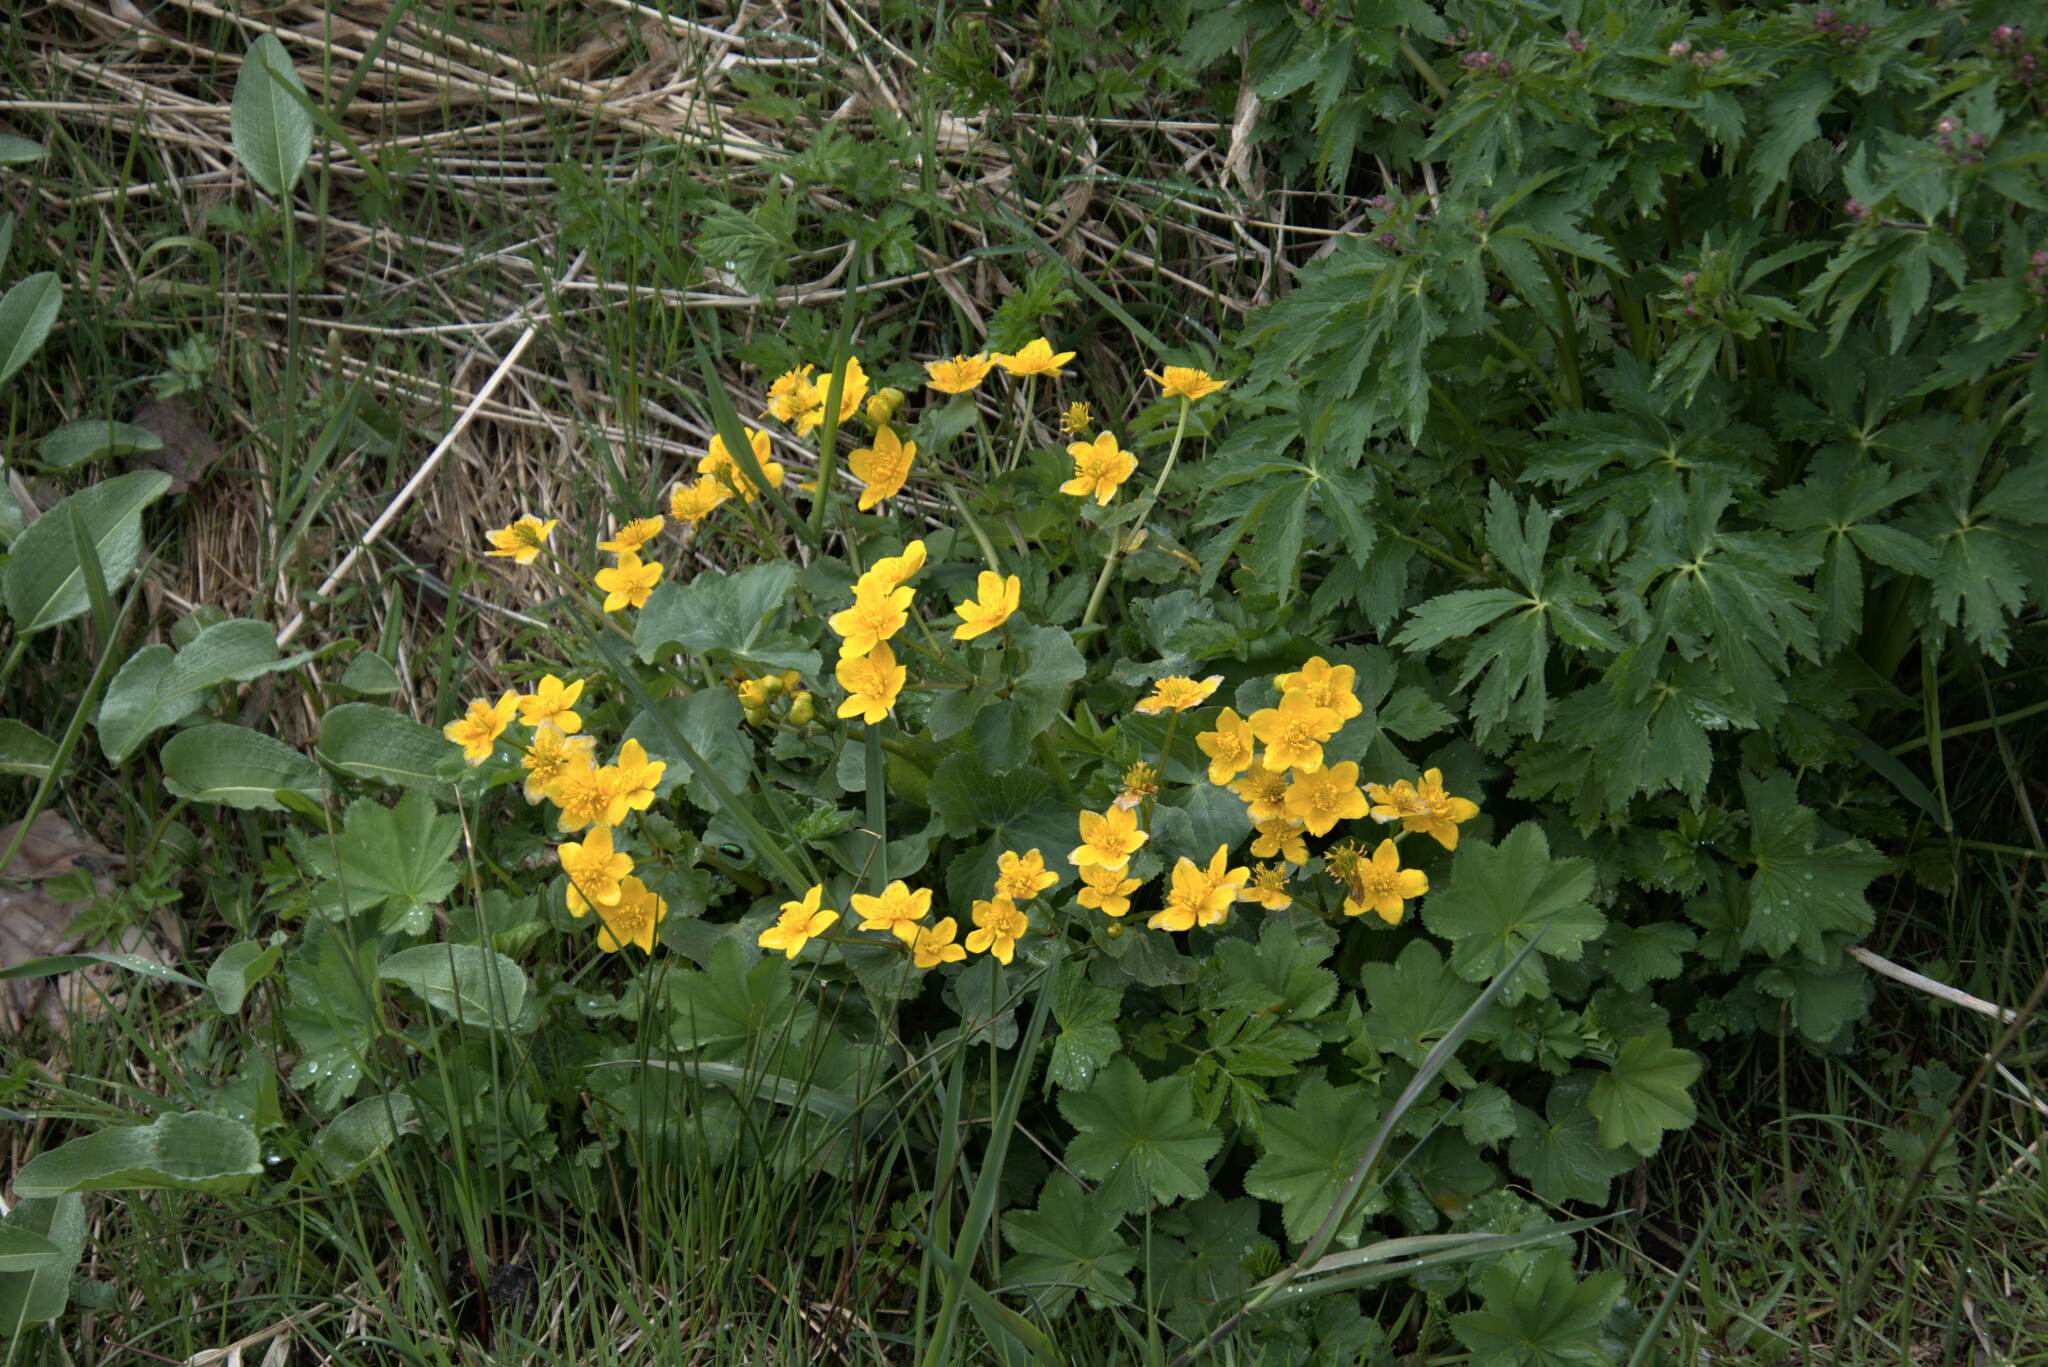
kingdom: Plantae
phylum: Tracheophyta
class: Magnoliopsida
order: Ranunculales
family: Ranunculaceae
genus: Caltha
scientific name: Caltha palustris
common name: Marsh marigold
